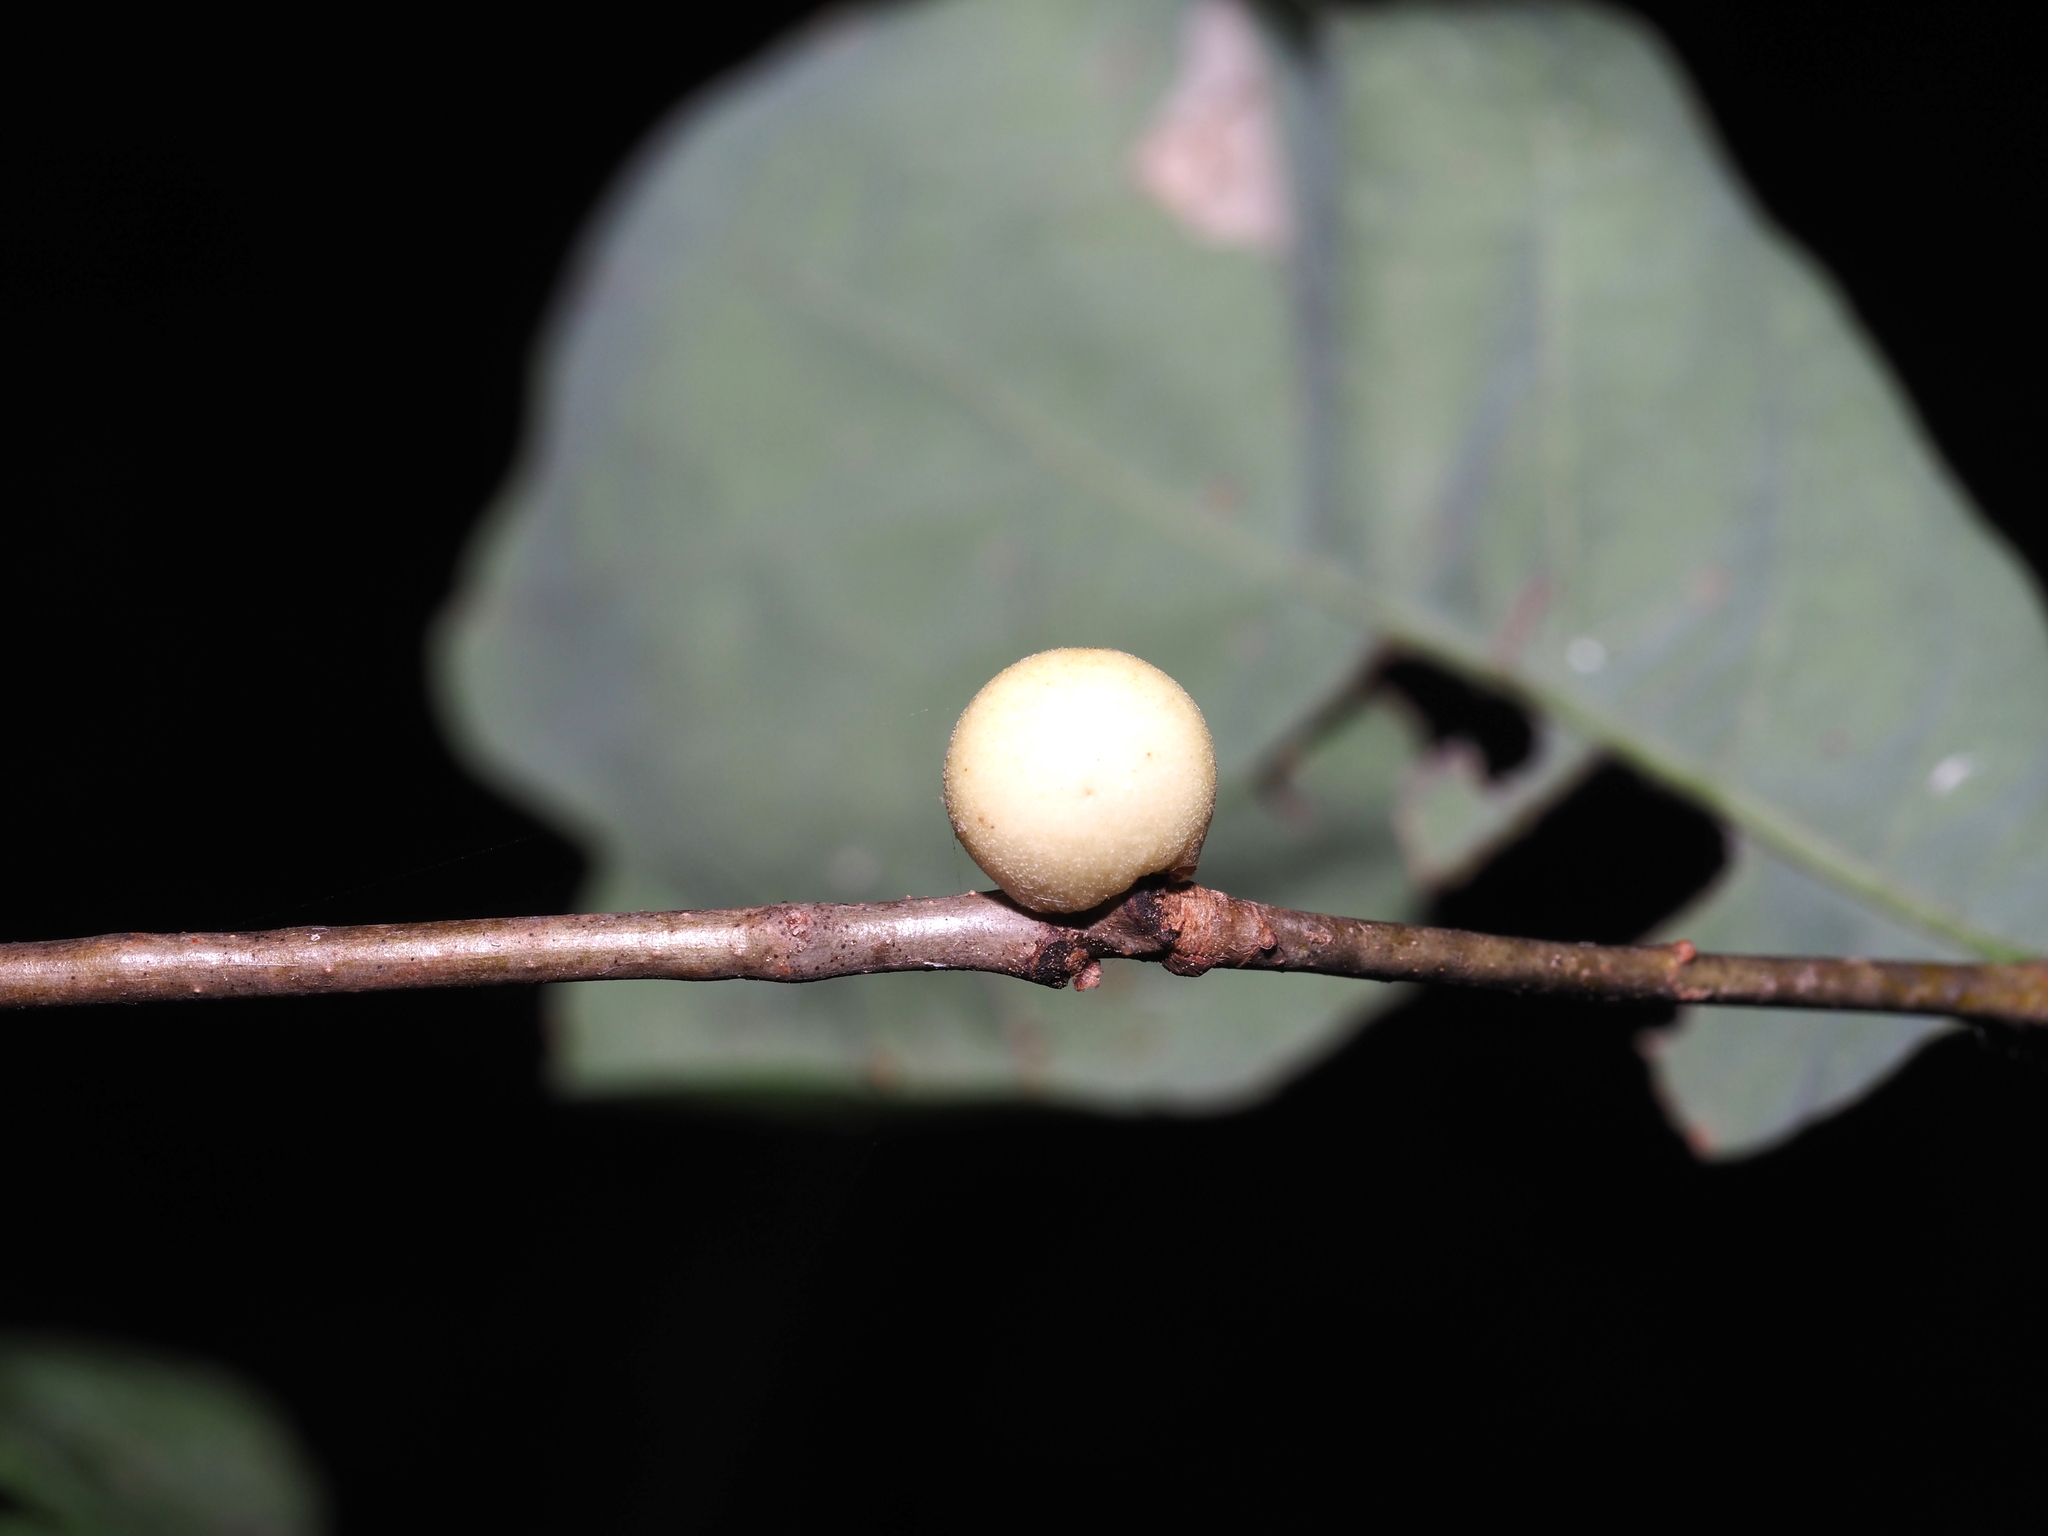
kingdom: Animalia
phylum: Arthropoda
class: Insecta
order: Hymenoptera
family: Cynipidae
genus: Disholcaspis
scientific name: Disholcaspis quercusglobulus
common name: Round bullet gall wasp
